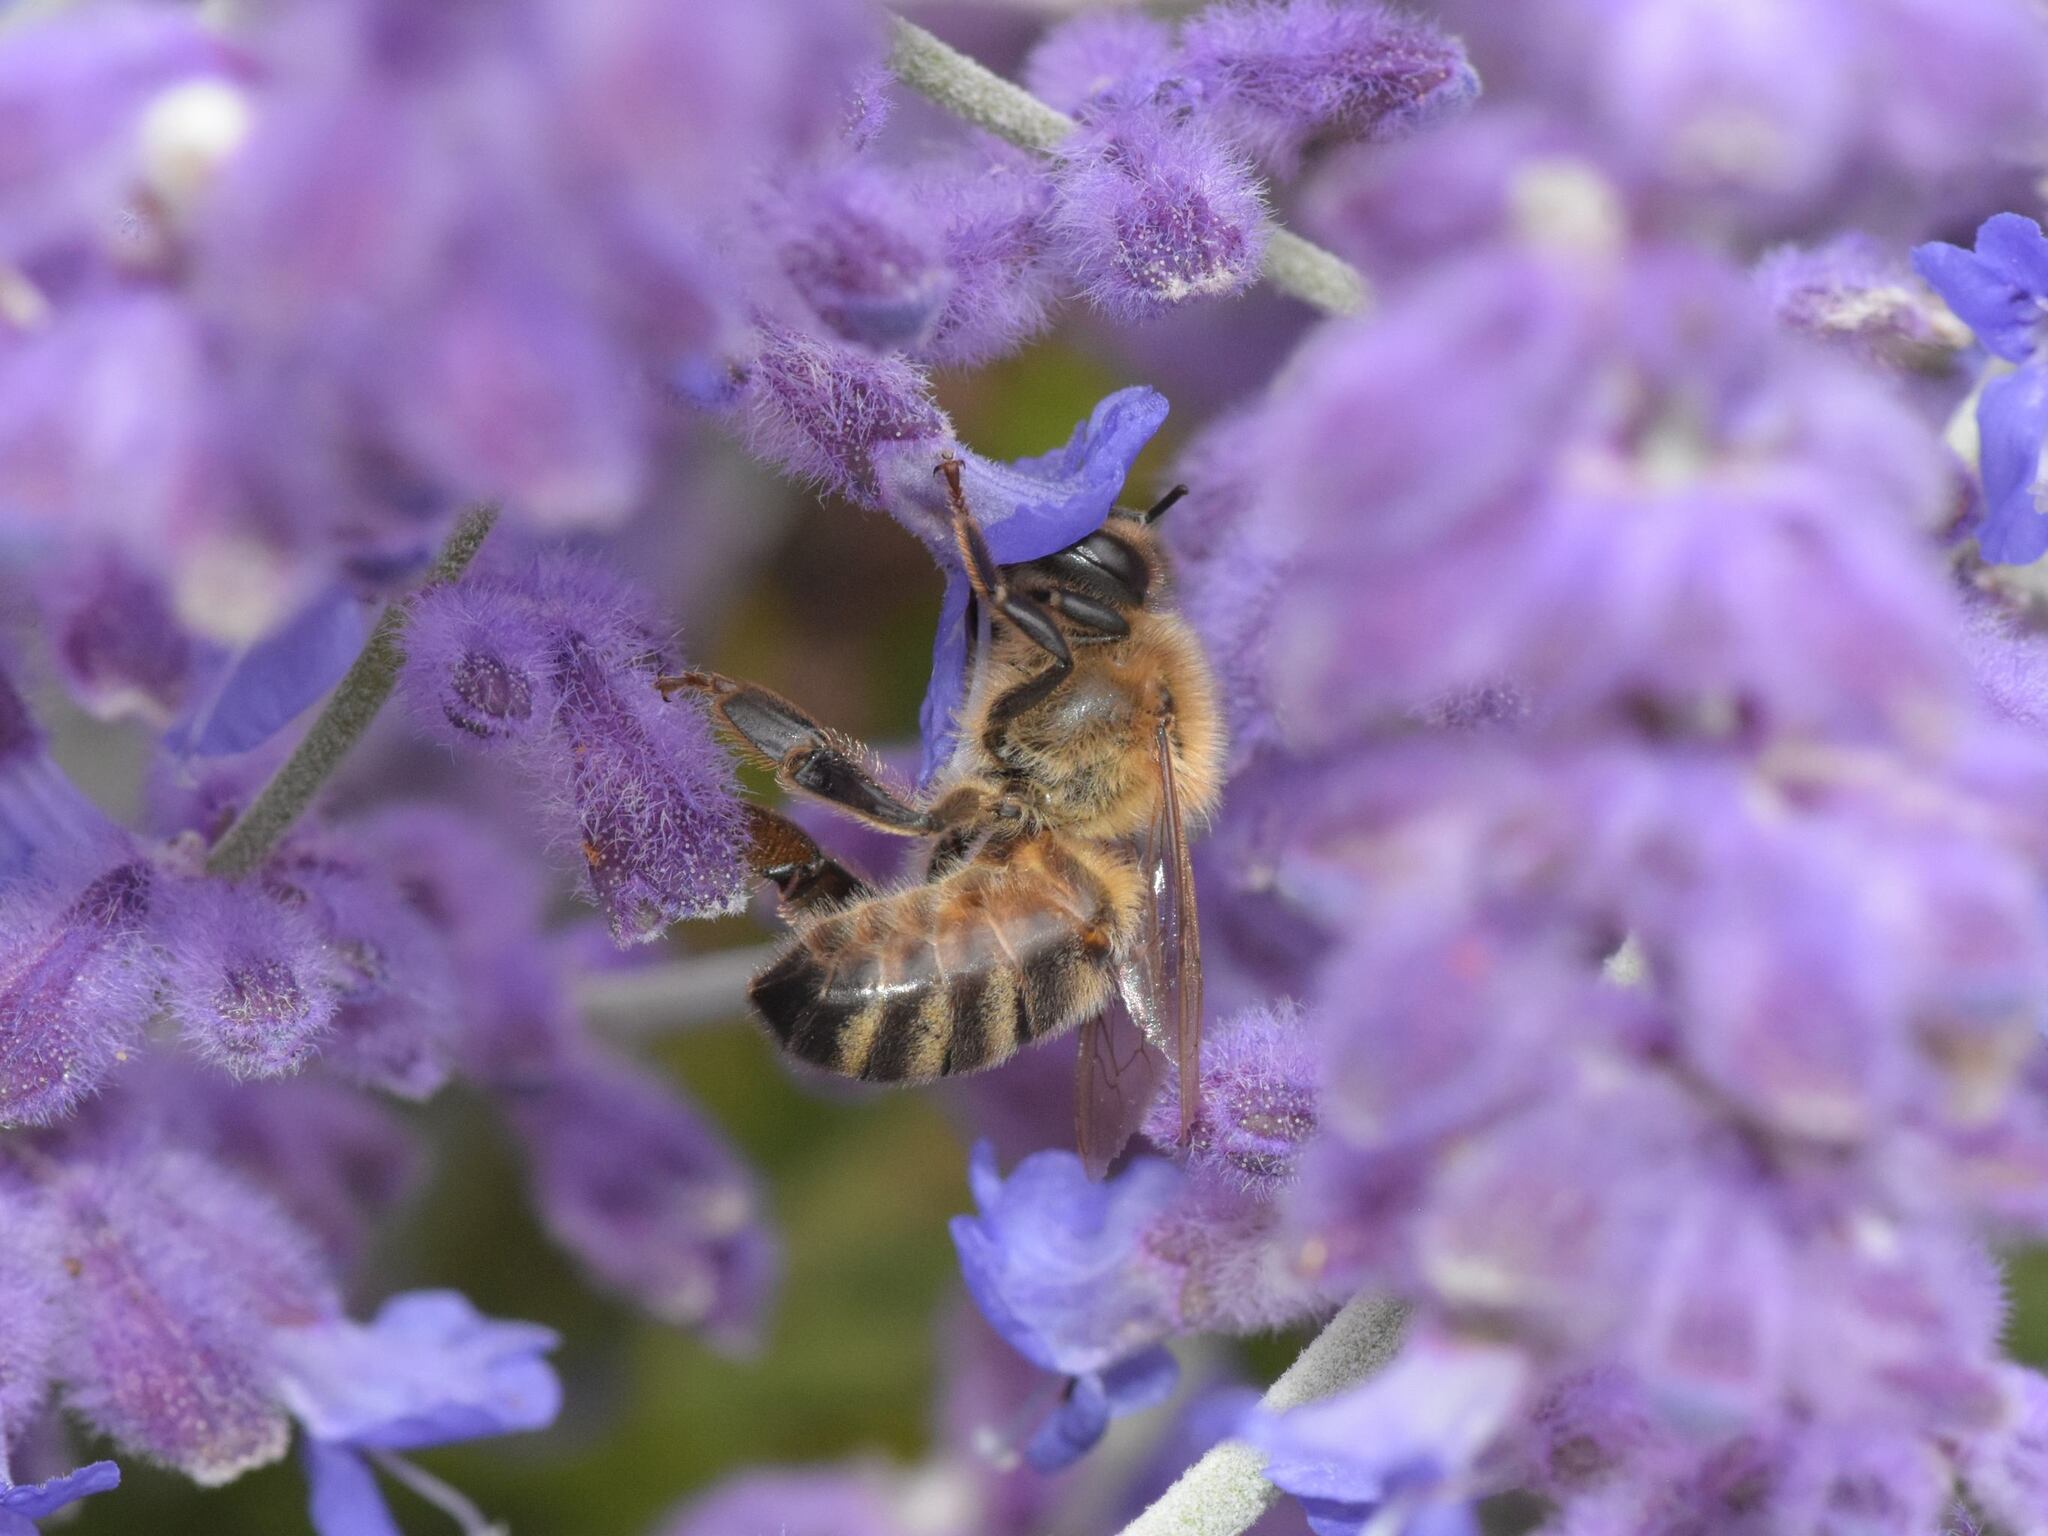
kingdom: Animalia
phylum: Arthropoda
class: Insecta
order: Hymenoptera
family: Apidae
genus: Apis
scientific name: Apis mellifera
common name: Honey bee
